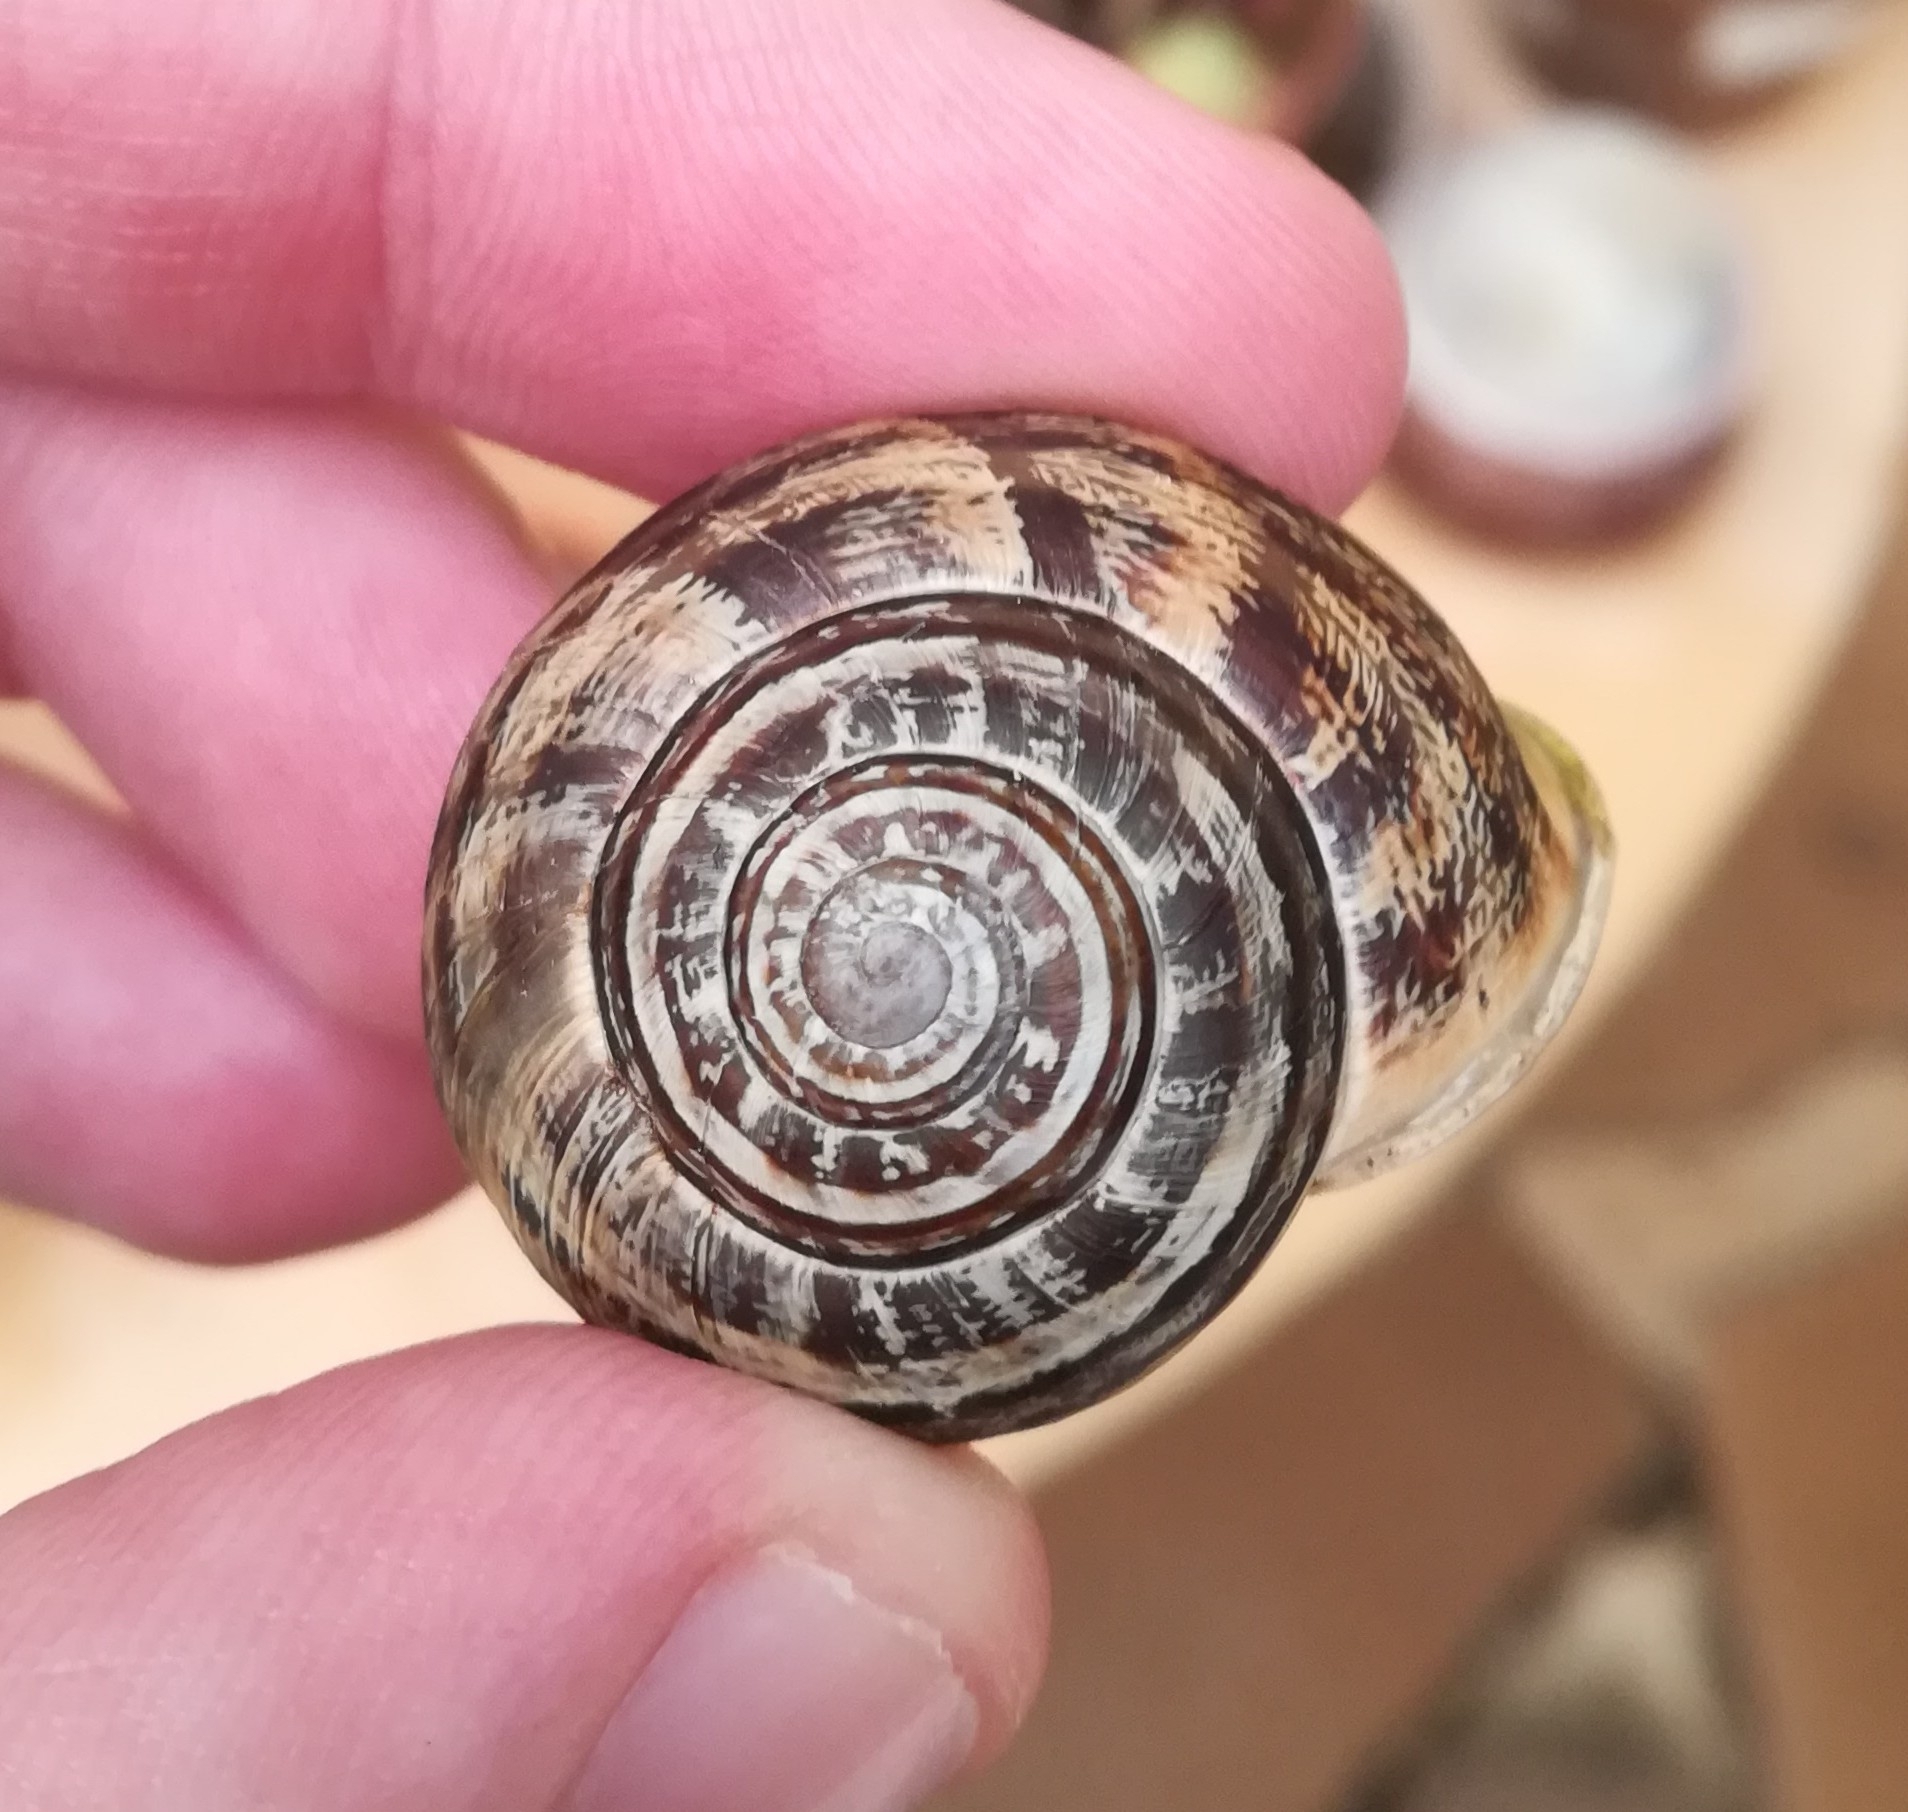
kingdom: Animalia
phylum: Mollusca
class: Gastropoda
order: Stylommatophora
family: Helicidae
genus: Eobania
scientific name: Eobania vermiculata
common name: Chocolateband snail
